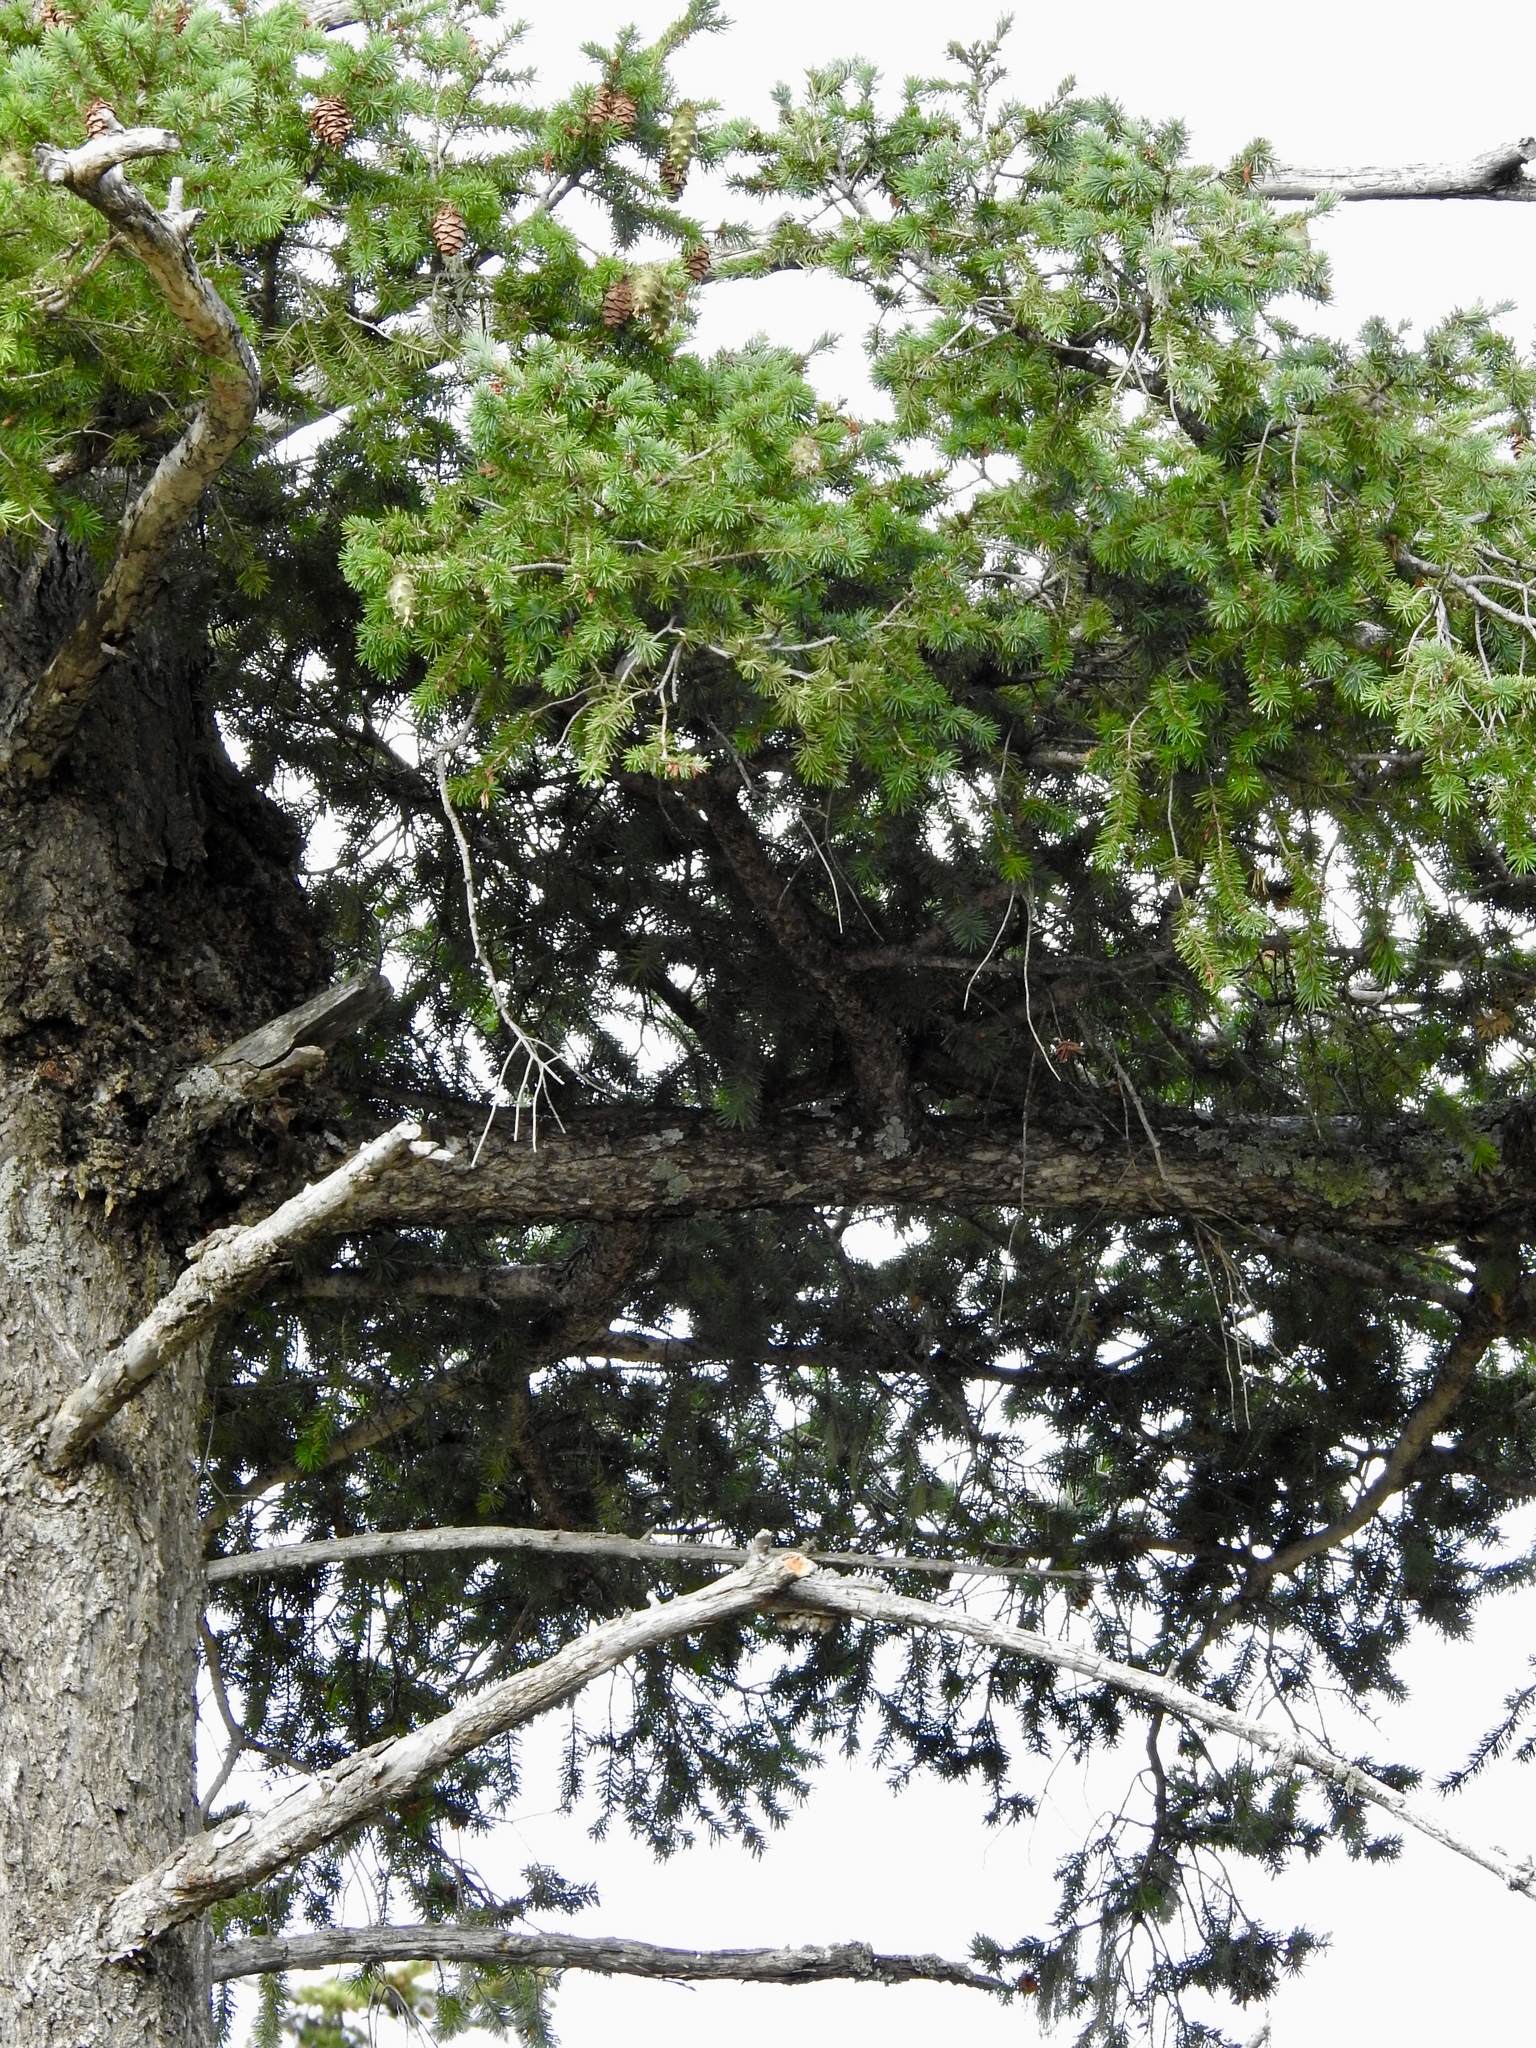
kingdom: Plantae
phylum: Tracheophyta
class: Pinopsida
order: Pinales
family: Pinaceae
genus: Pseudotsuga
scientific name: Pseudotsuga menziesii
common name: Douglas fir
